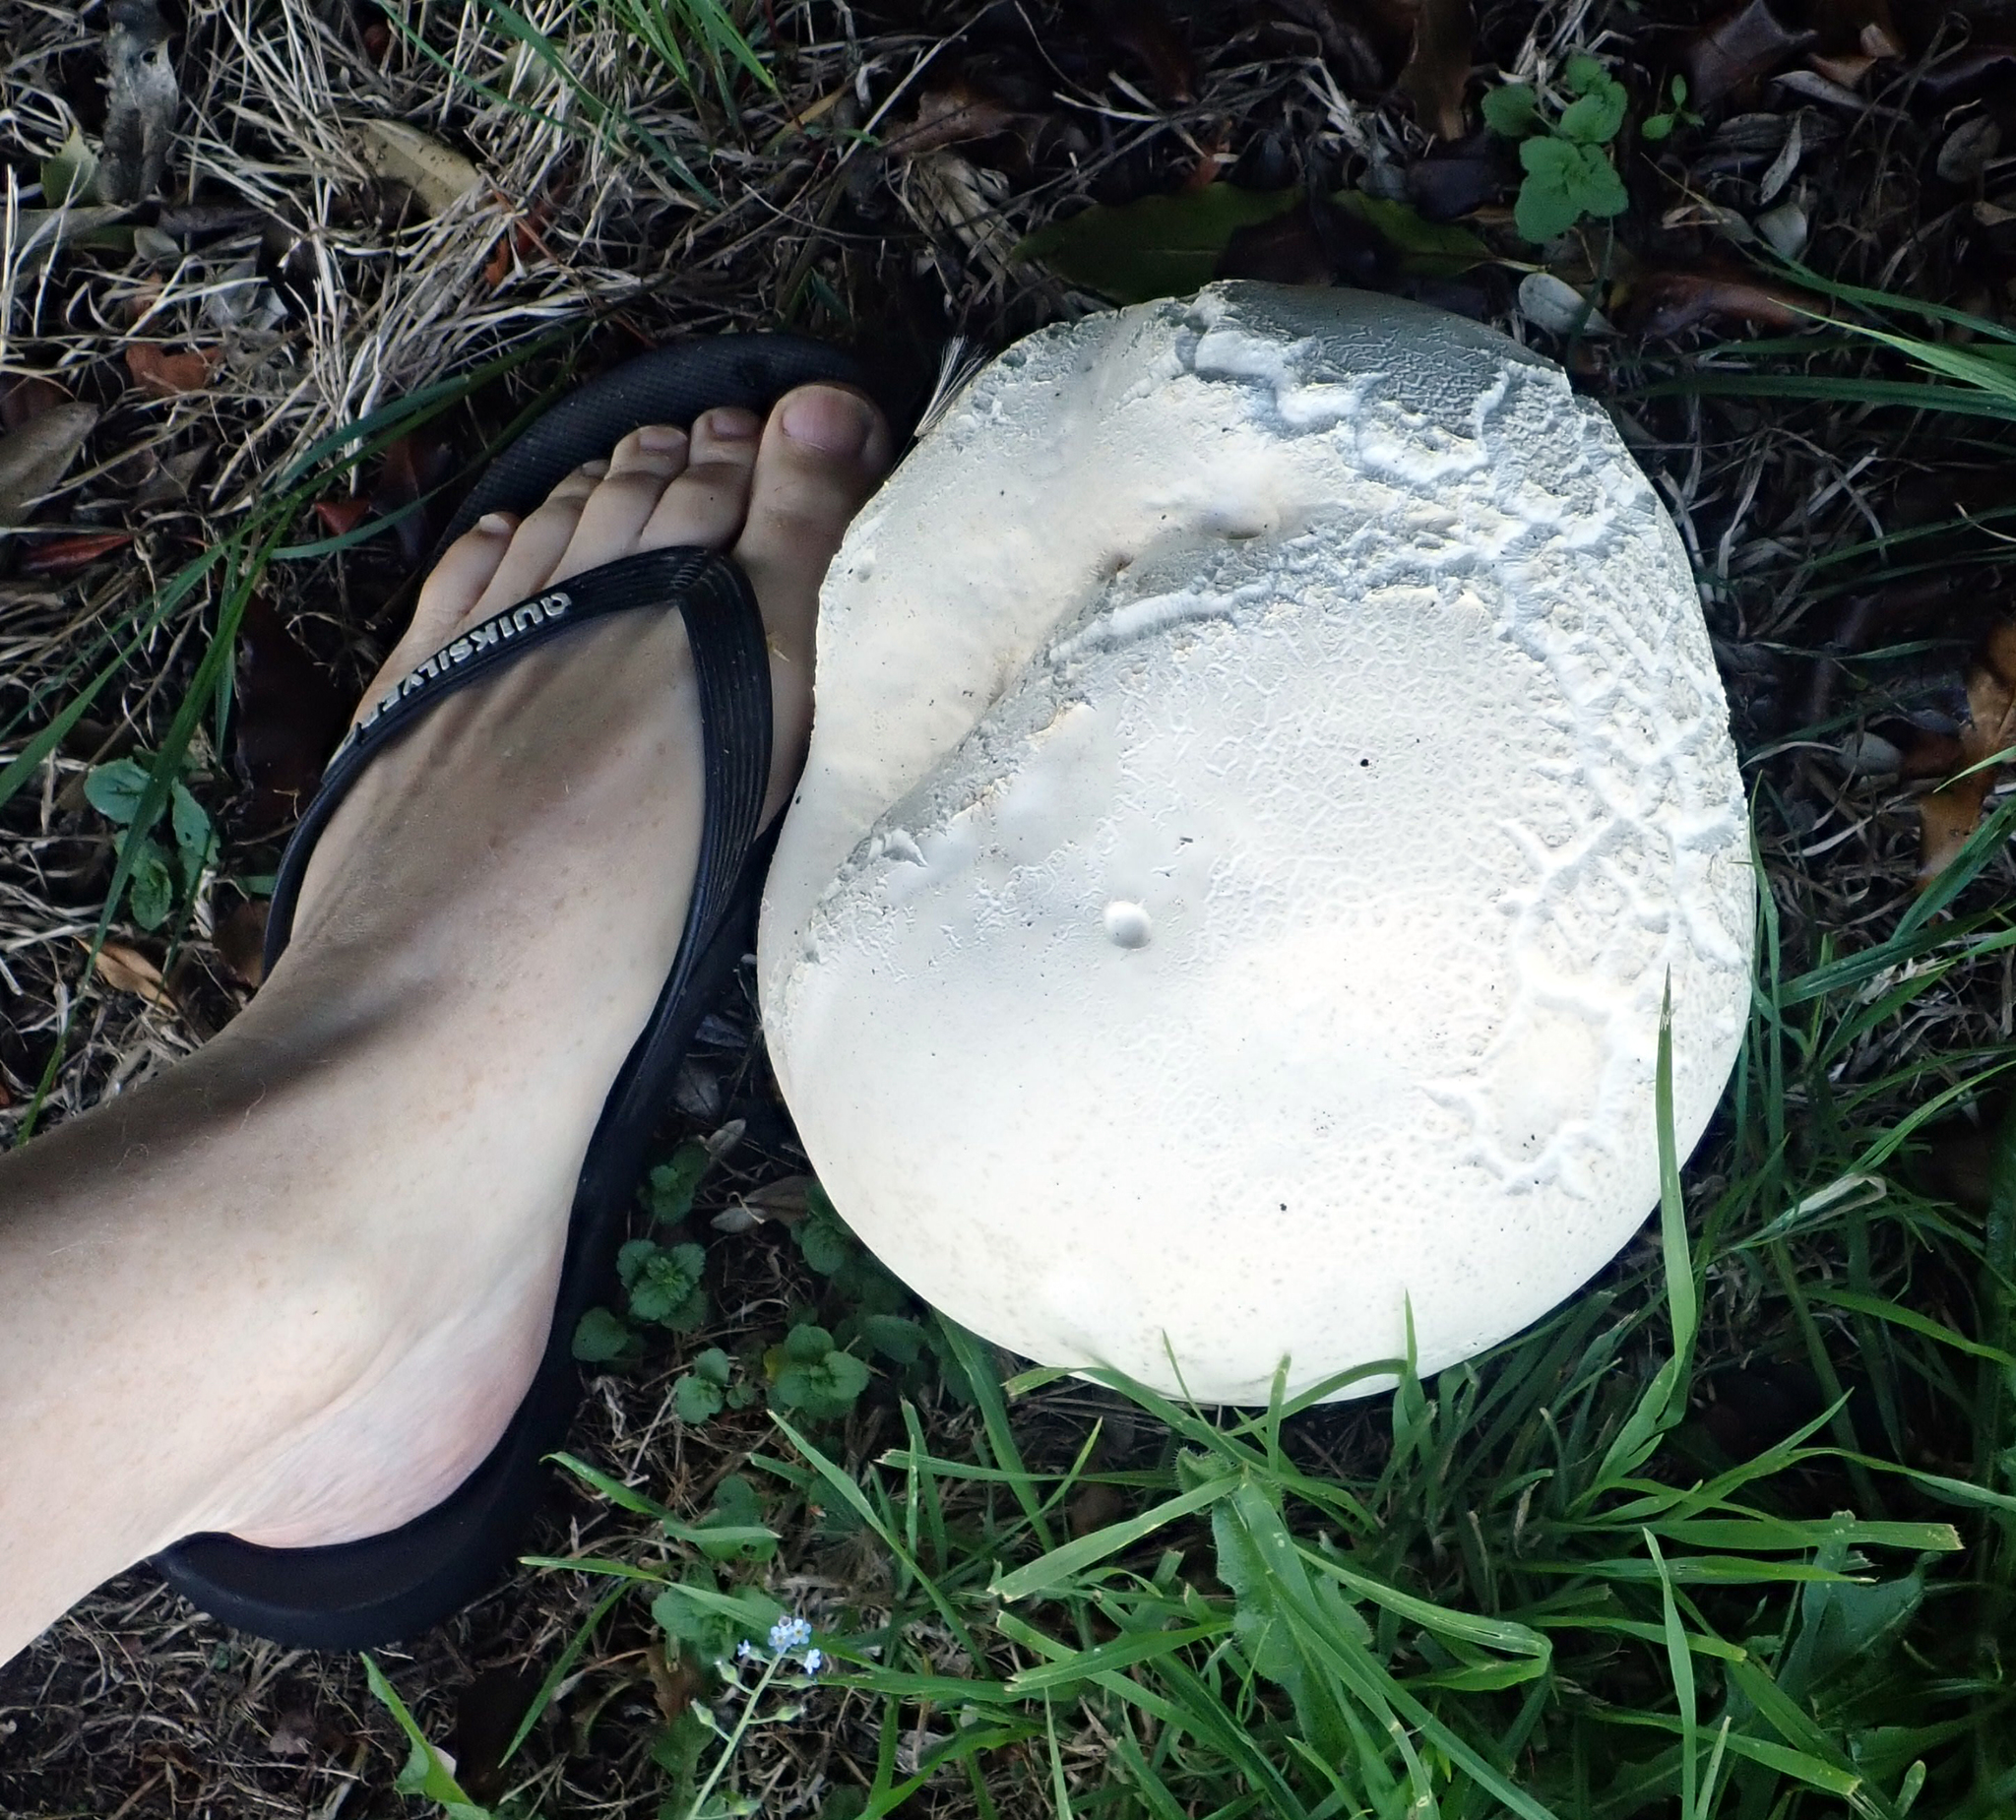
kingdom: Fungi
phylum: Basidiomycota
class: Agaricomycetes
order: Agaricales
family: Lycoperdaceae
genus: Calvatia
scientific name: Calvatia gigantea
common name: Giant puffball
